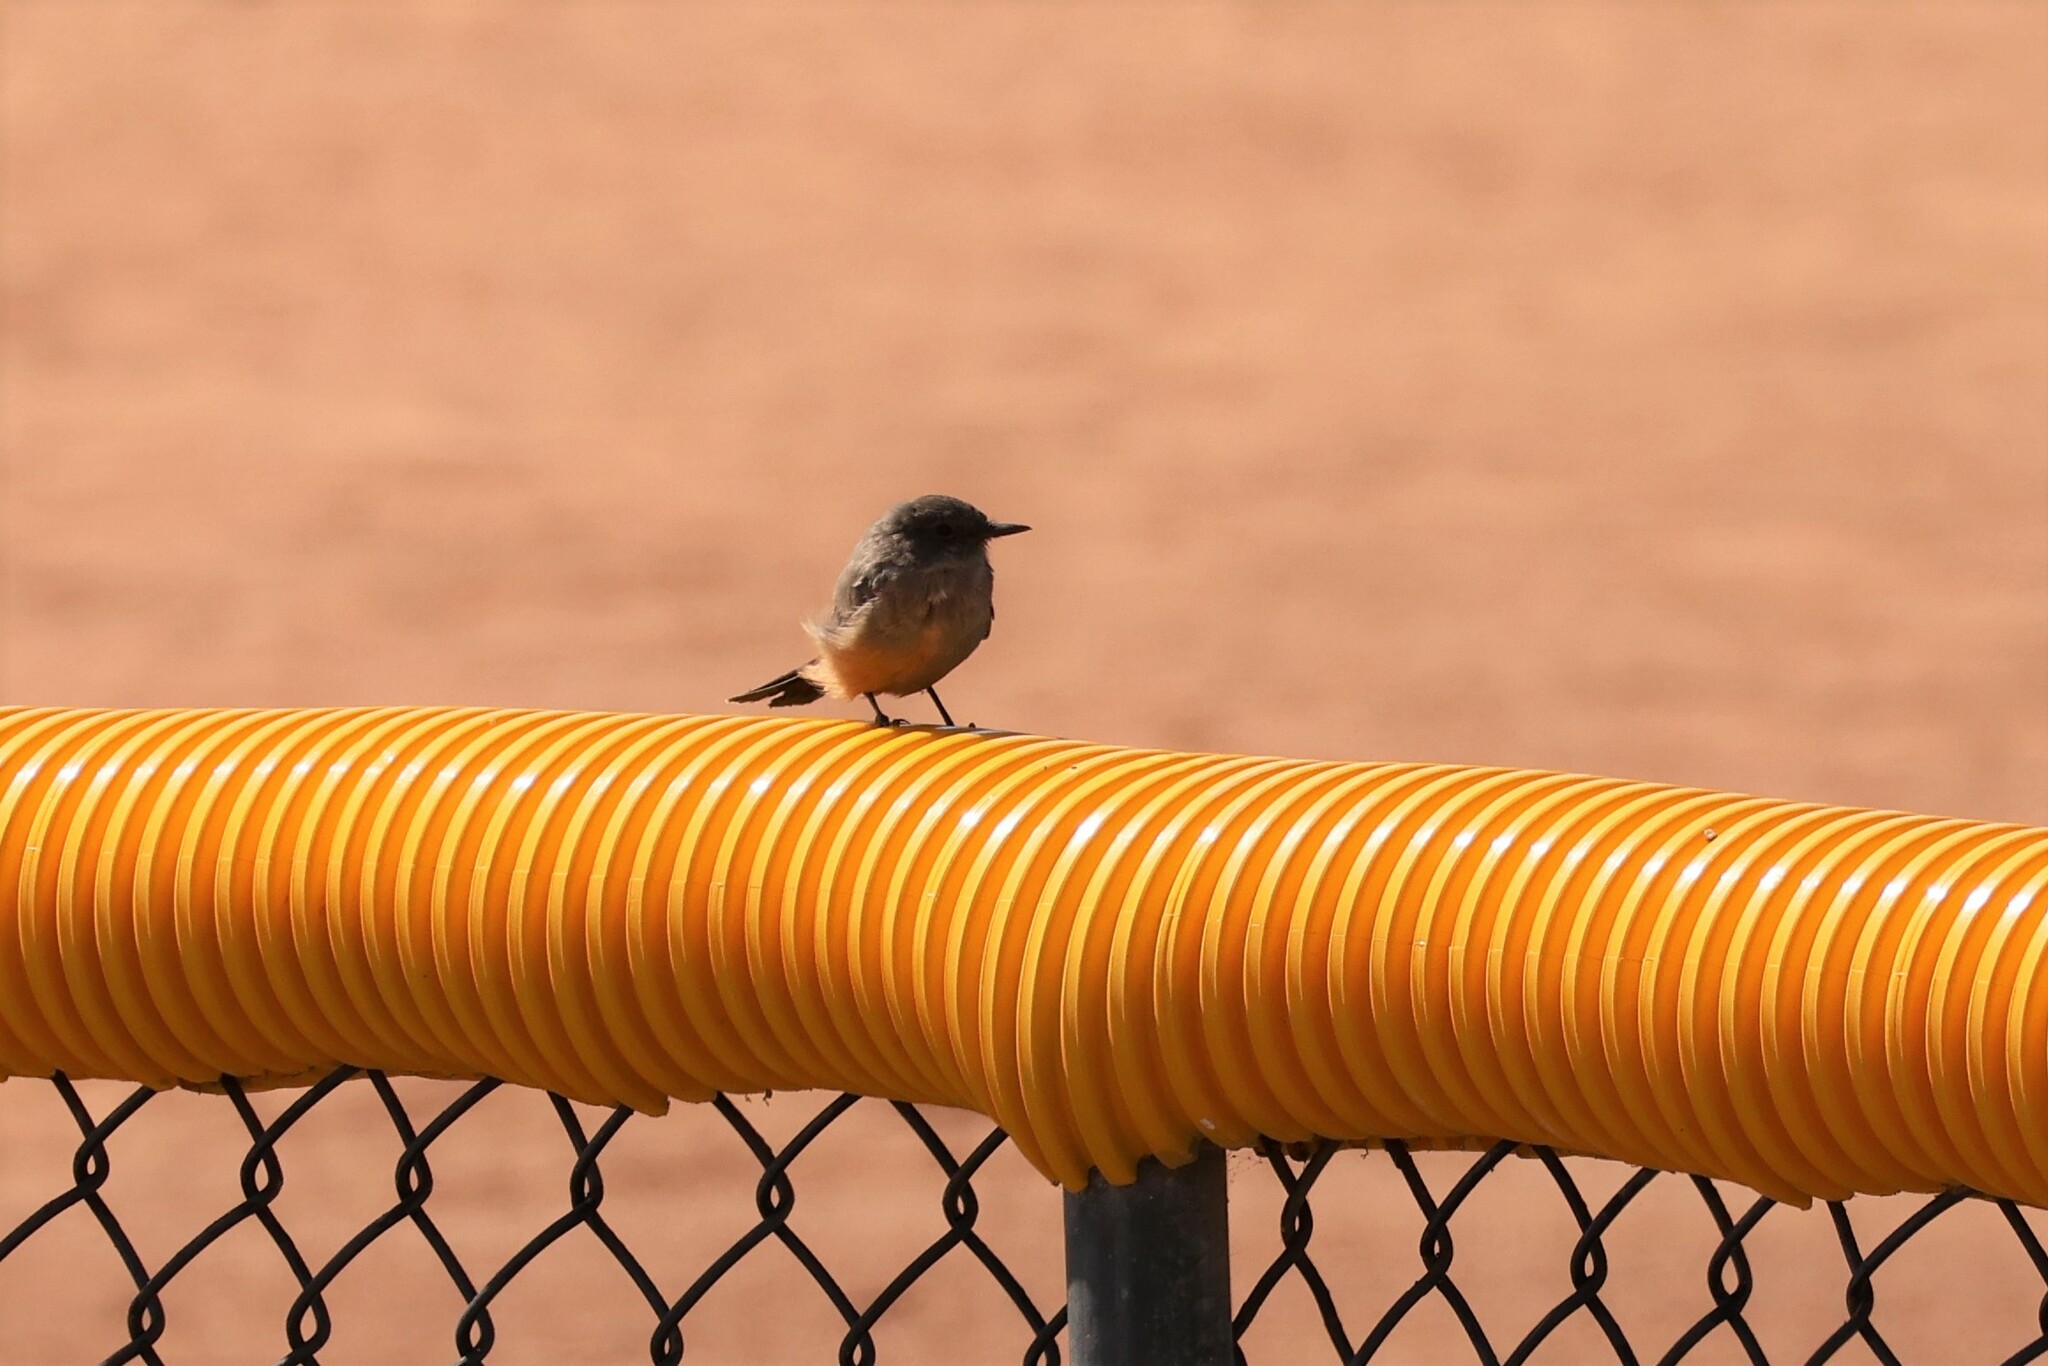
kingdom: Animalia
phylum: Chordata
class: Aves
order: Passeriformes
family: Tyrannidae
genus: Sayornis
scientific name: Sayornis saya
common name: Say's phoebe
